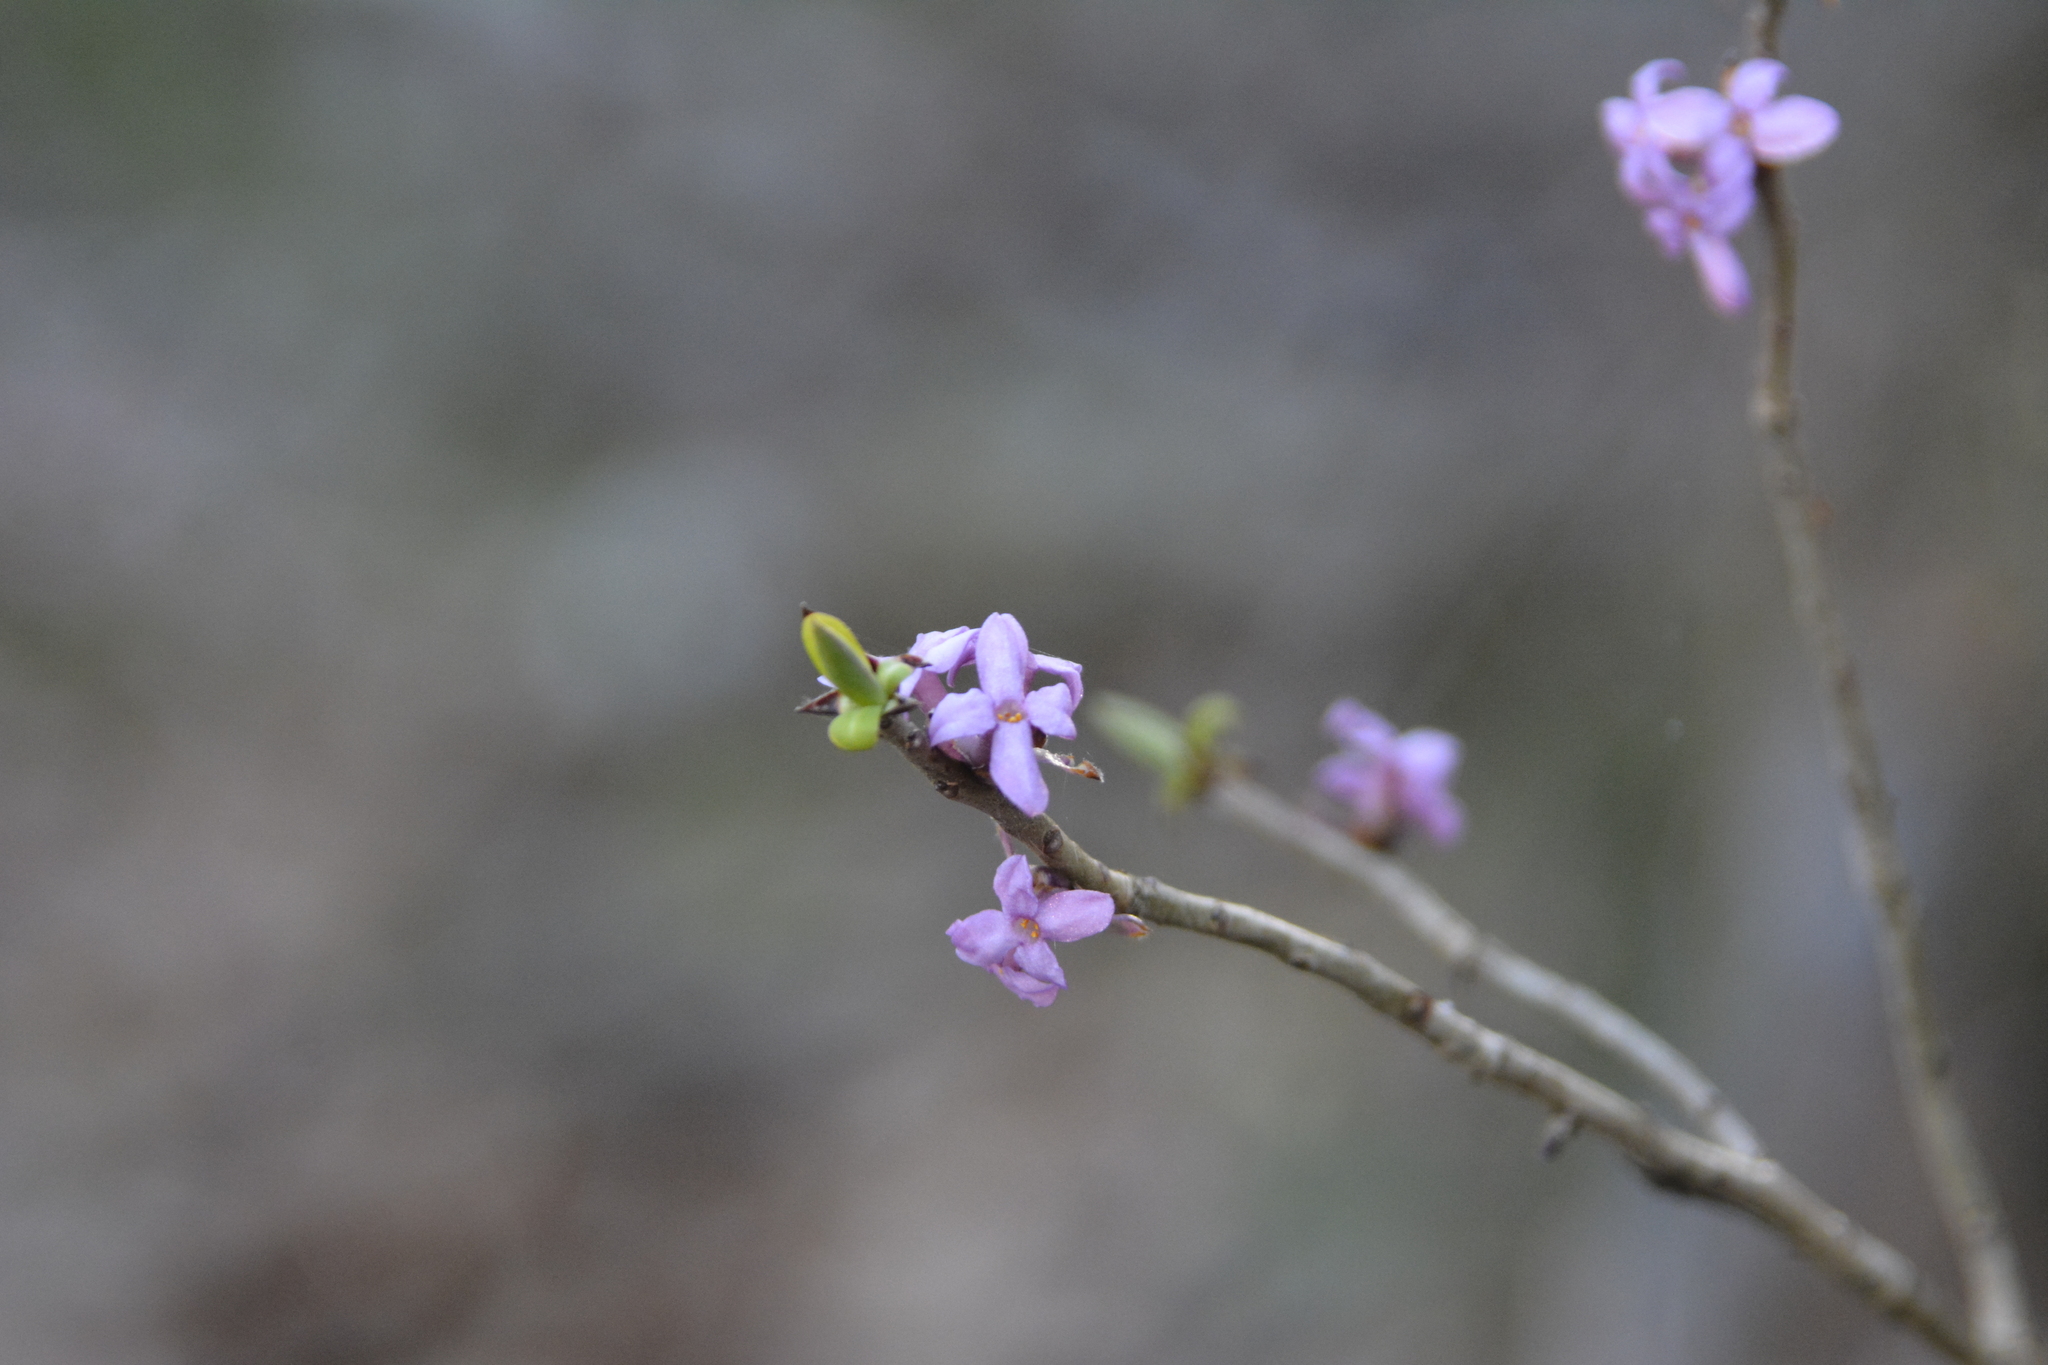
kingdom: Plantae
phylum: Tracheophyta
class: Magnoliopsida
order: Malvales
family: Thymelaeaceae
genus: Daphne
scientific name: Daphne mezereum
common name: Mezereon
